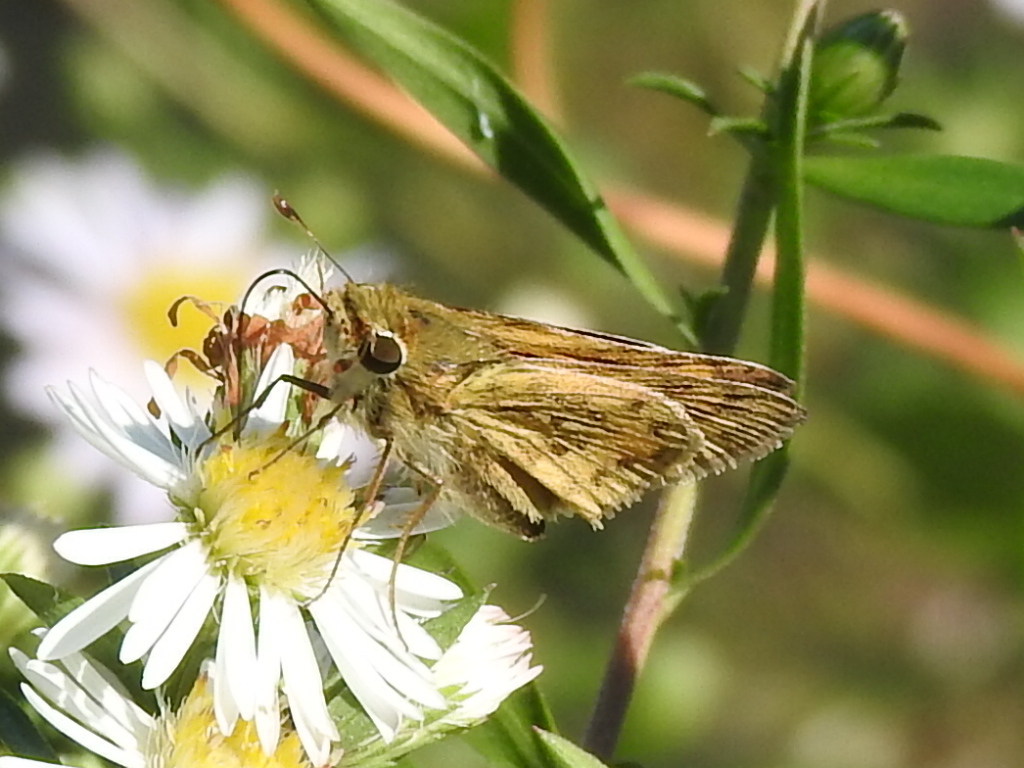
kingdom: Animalia
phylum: Arthropoda
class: Insecta
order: Lepidoptera
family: Hesperiidae
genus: Hylephila
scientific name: Hylephila phyleus
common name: Fiery skipper
